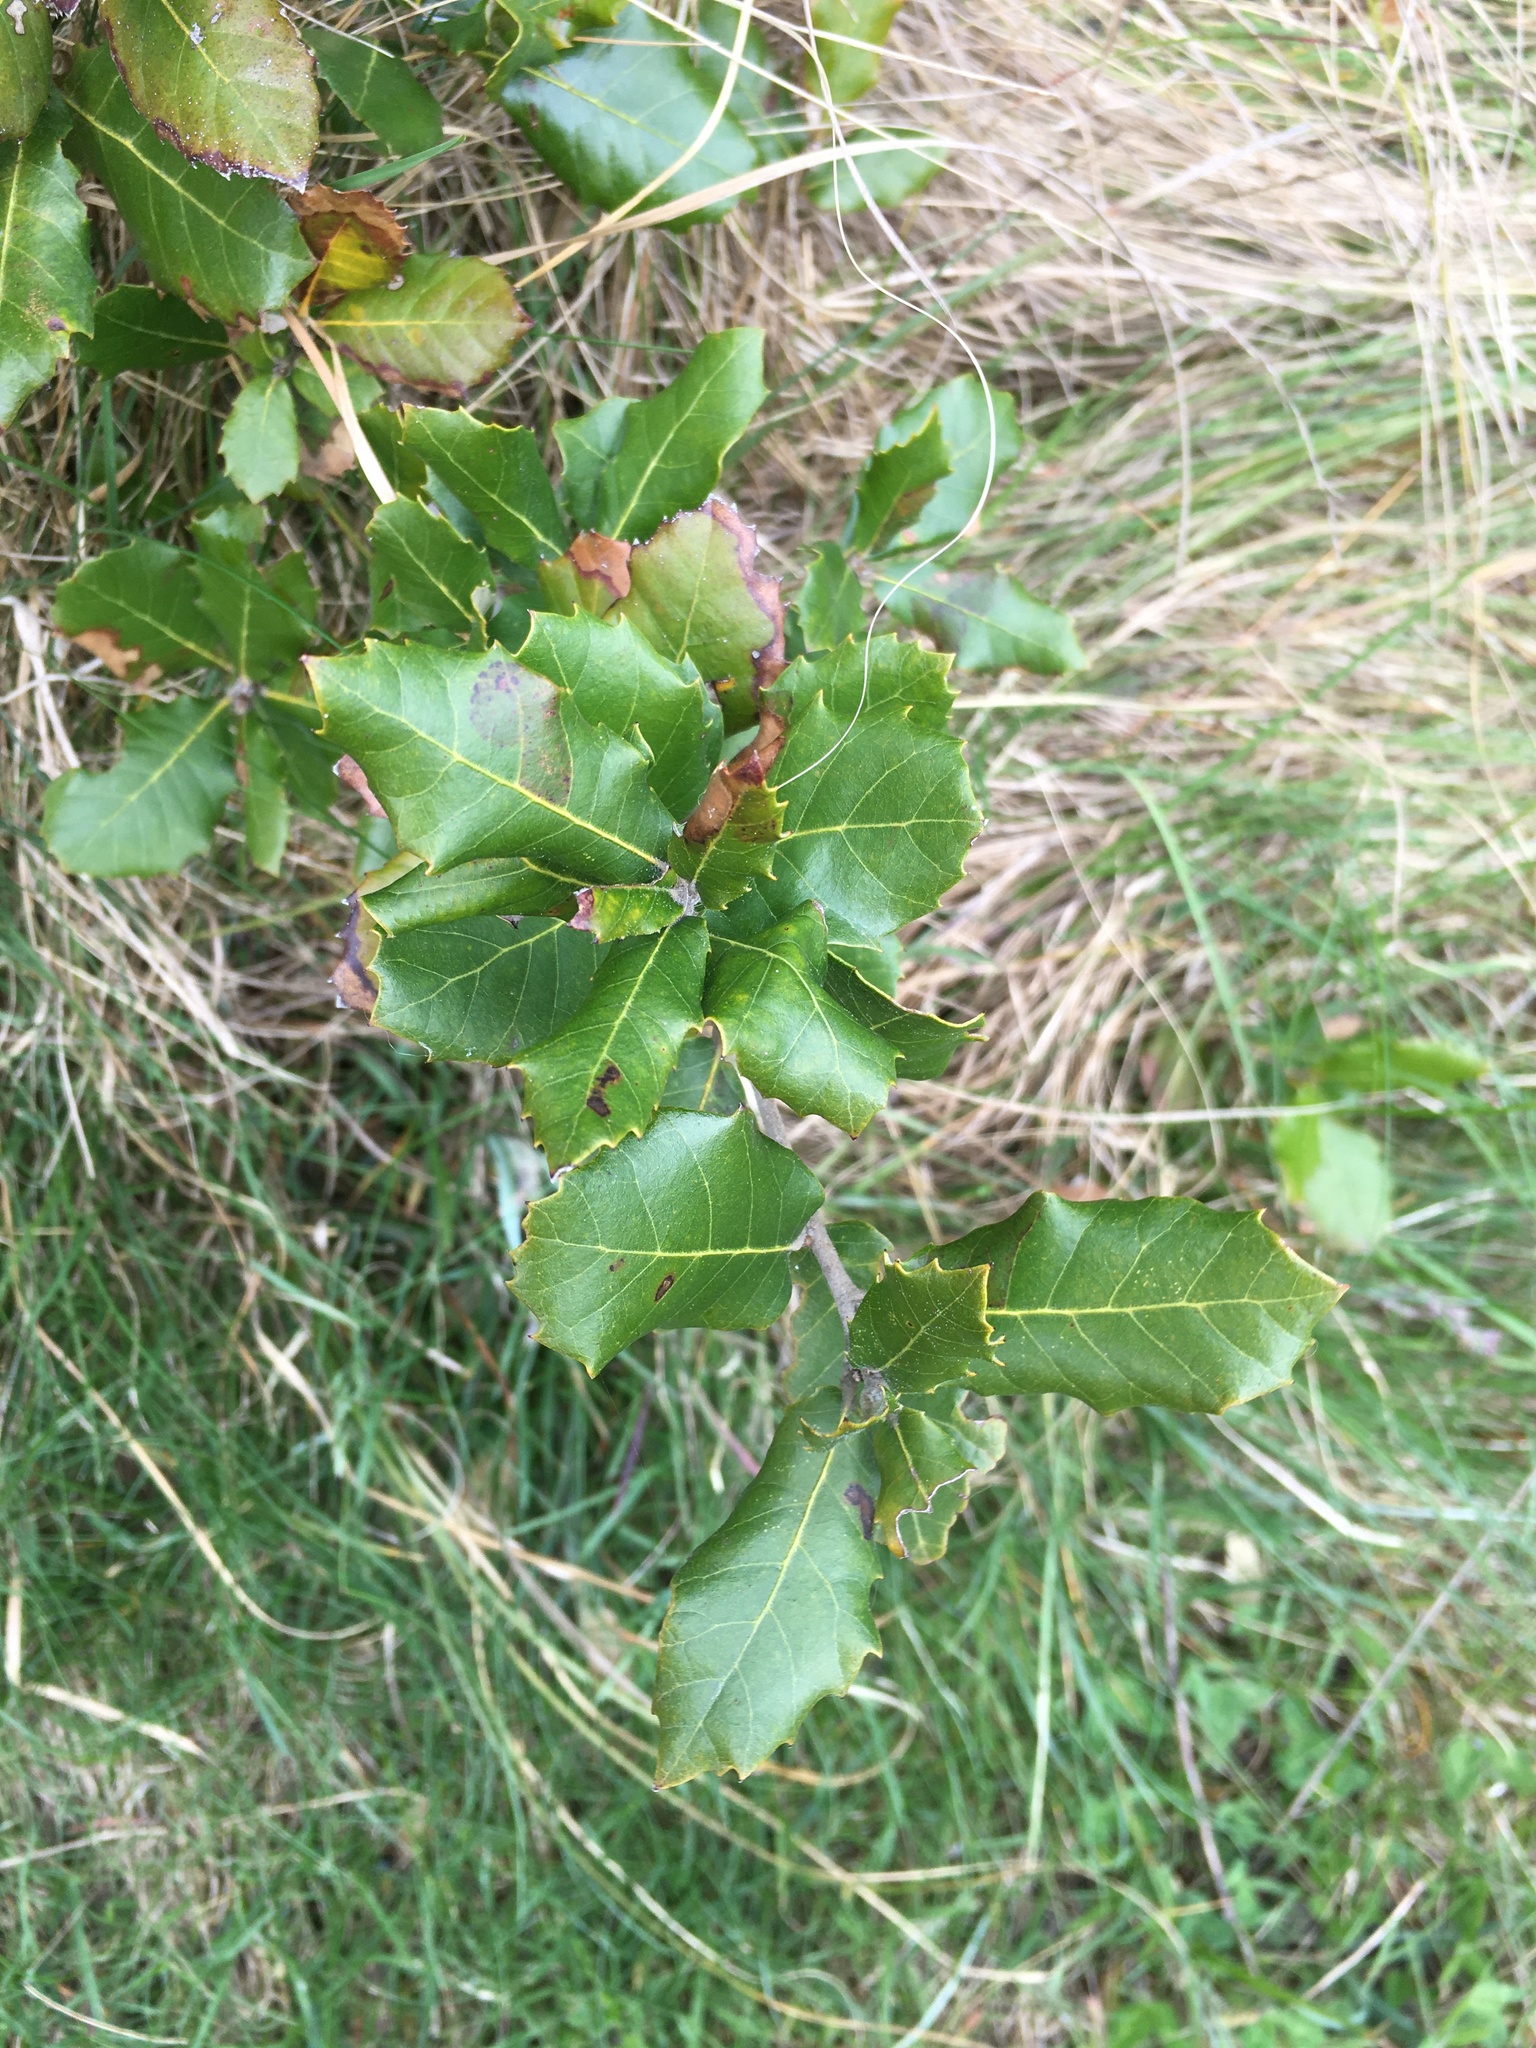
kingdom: Plantae
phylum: Tracheophyta
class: Magnoliopsida
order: Fagales
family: Fagaceae
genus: Quercus
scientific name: Quercus ilex
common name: Evergreen oak
